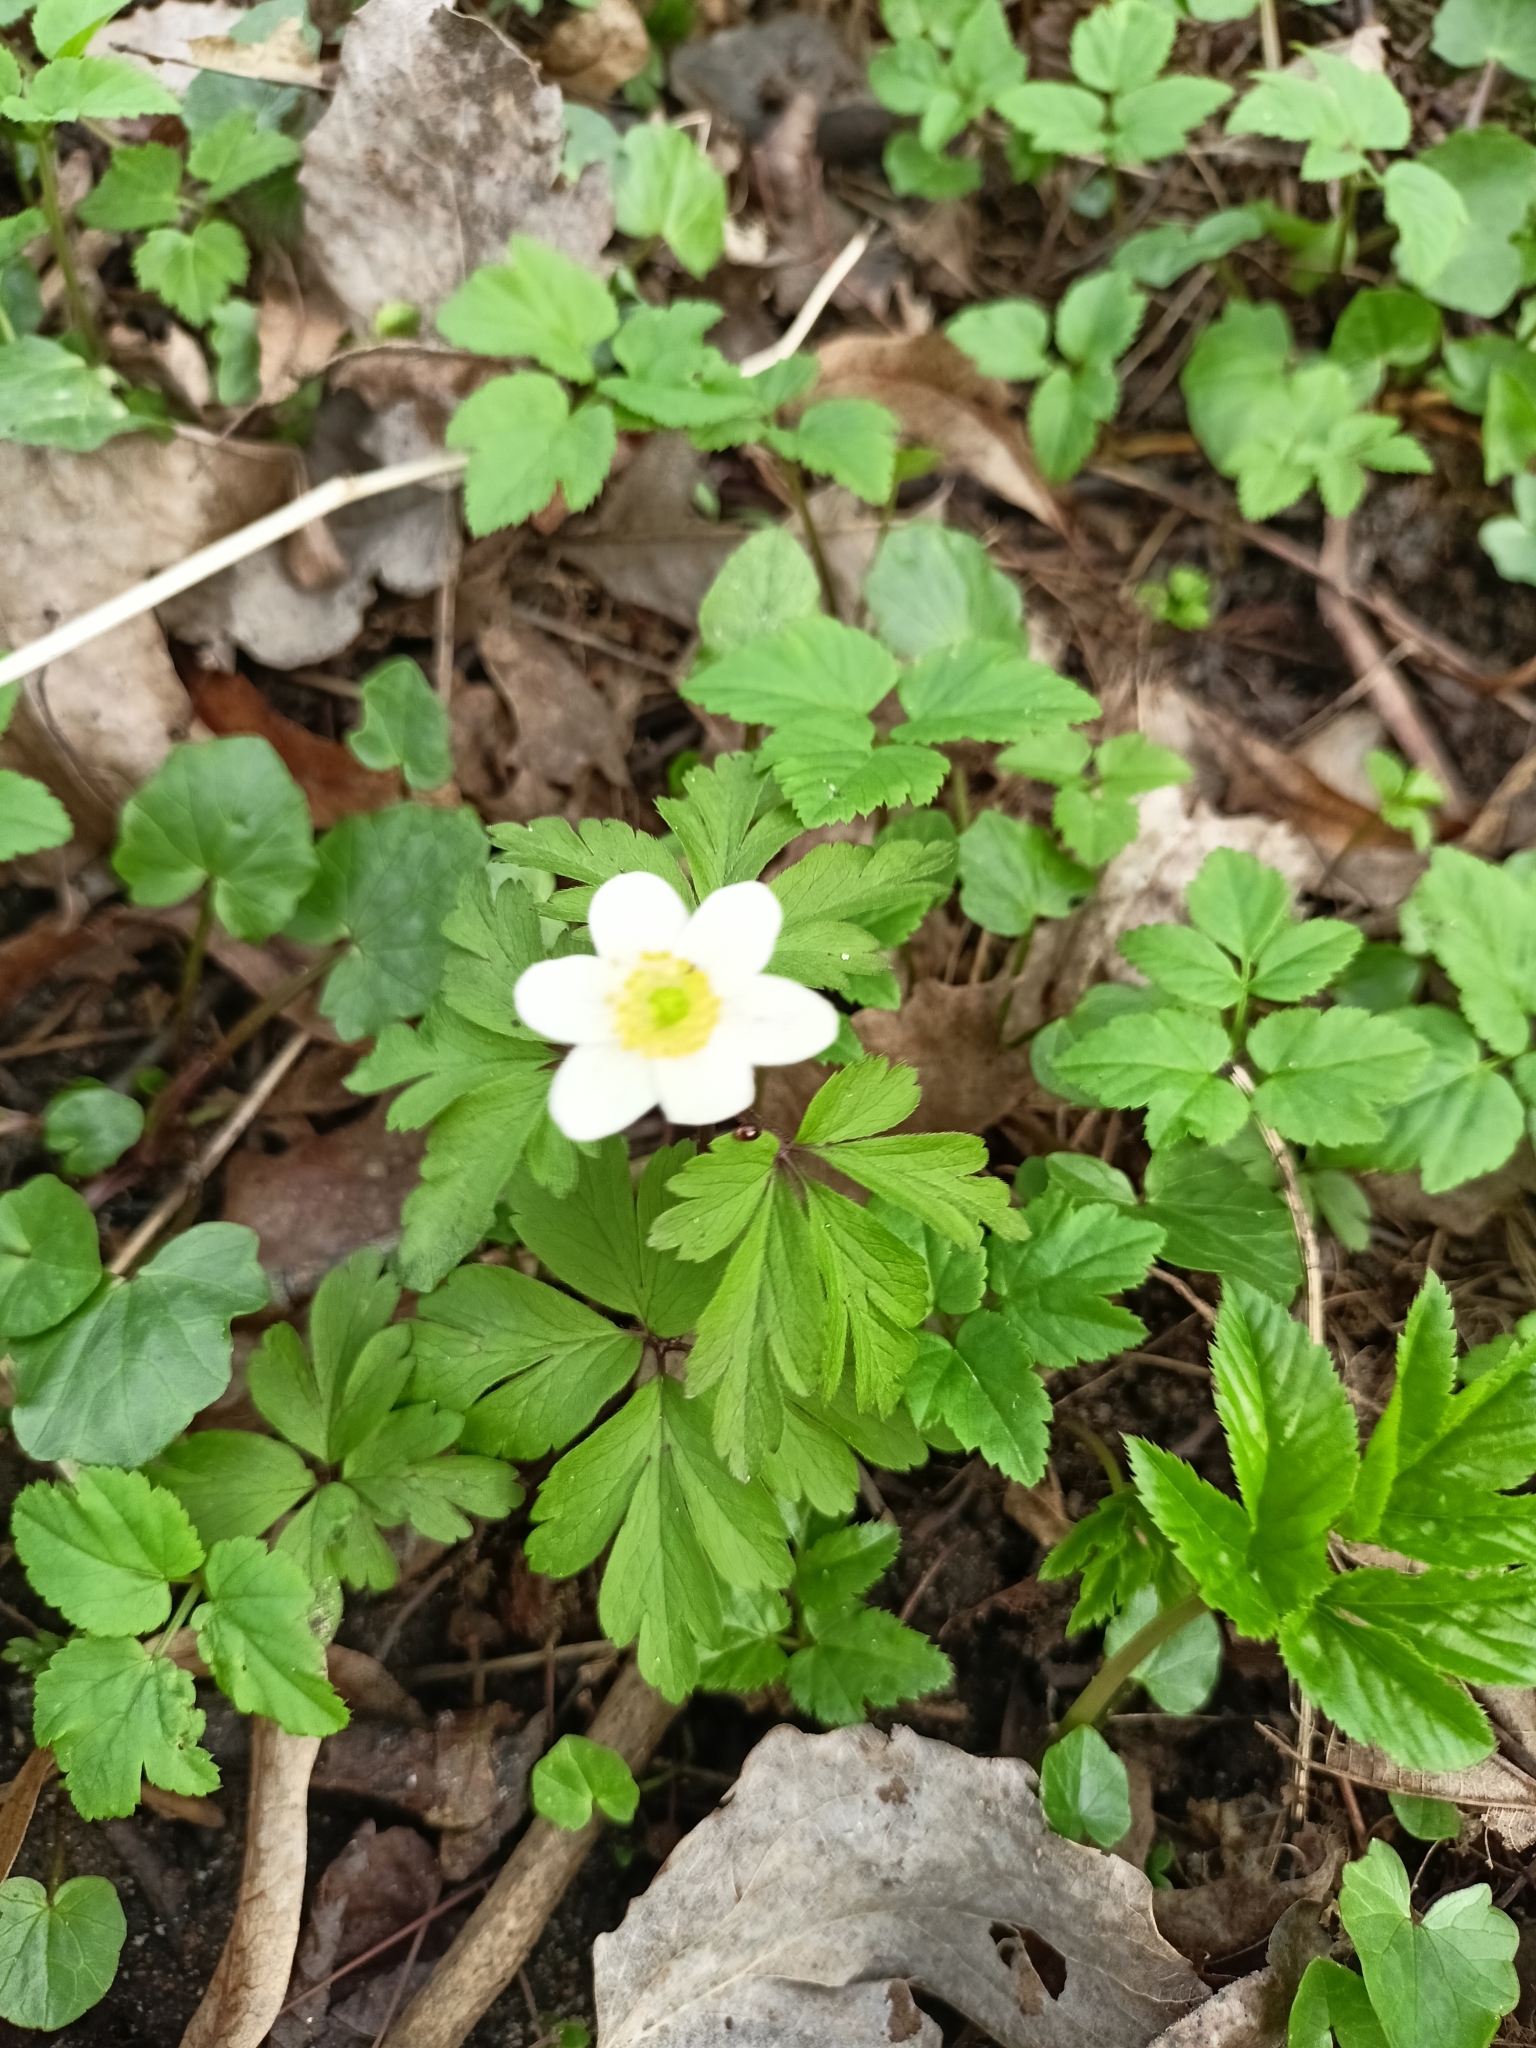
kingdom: Plantae
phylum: Tracheophyta
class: Magnoliopsida
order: Ranunculales
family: Ranunculaceae
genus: Anemone
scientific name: Anemone nemorosa
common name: Wood anemone
